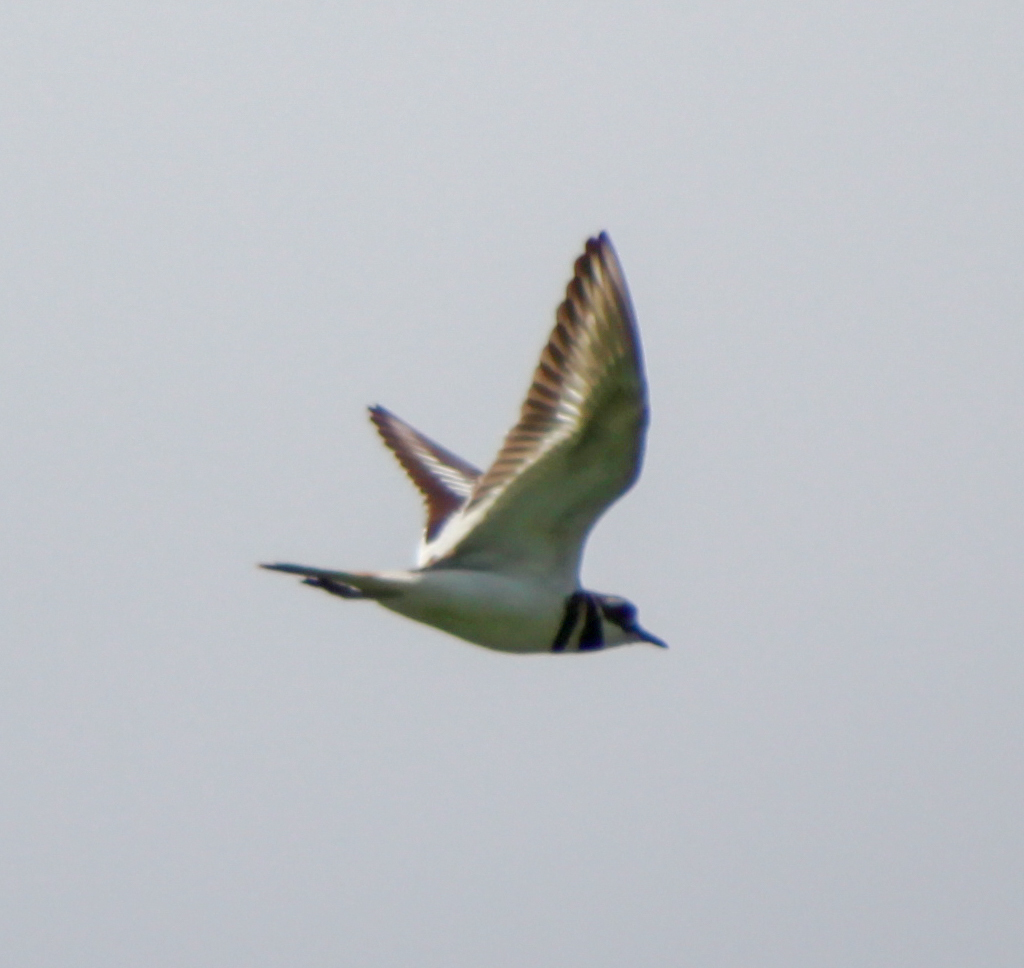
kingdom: Animalia
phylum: Chordata
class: Aves
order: Charadriiformes
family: Charadriidae
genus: Charadrius
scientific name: Charadrius vociferus
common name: Killdeer
